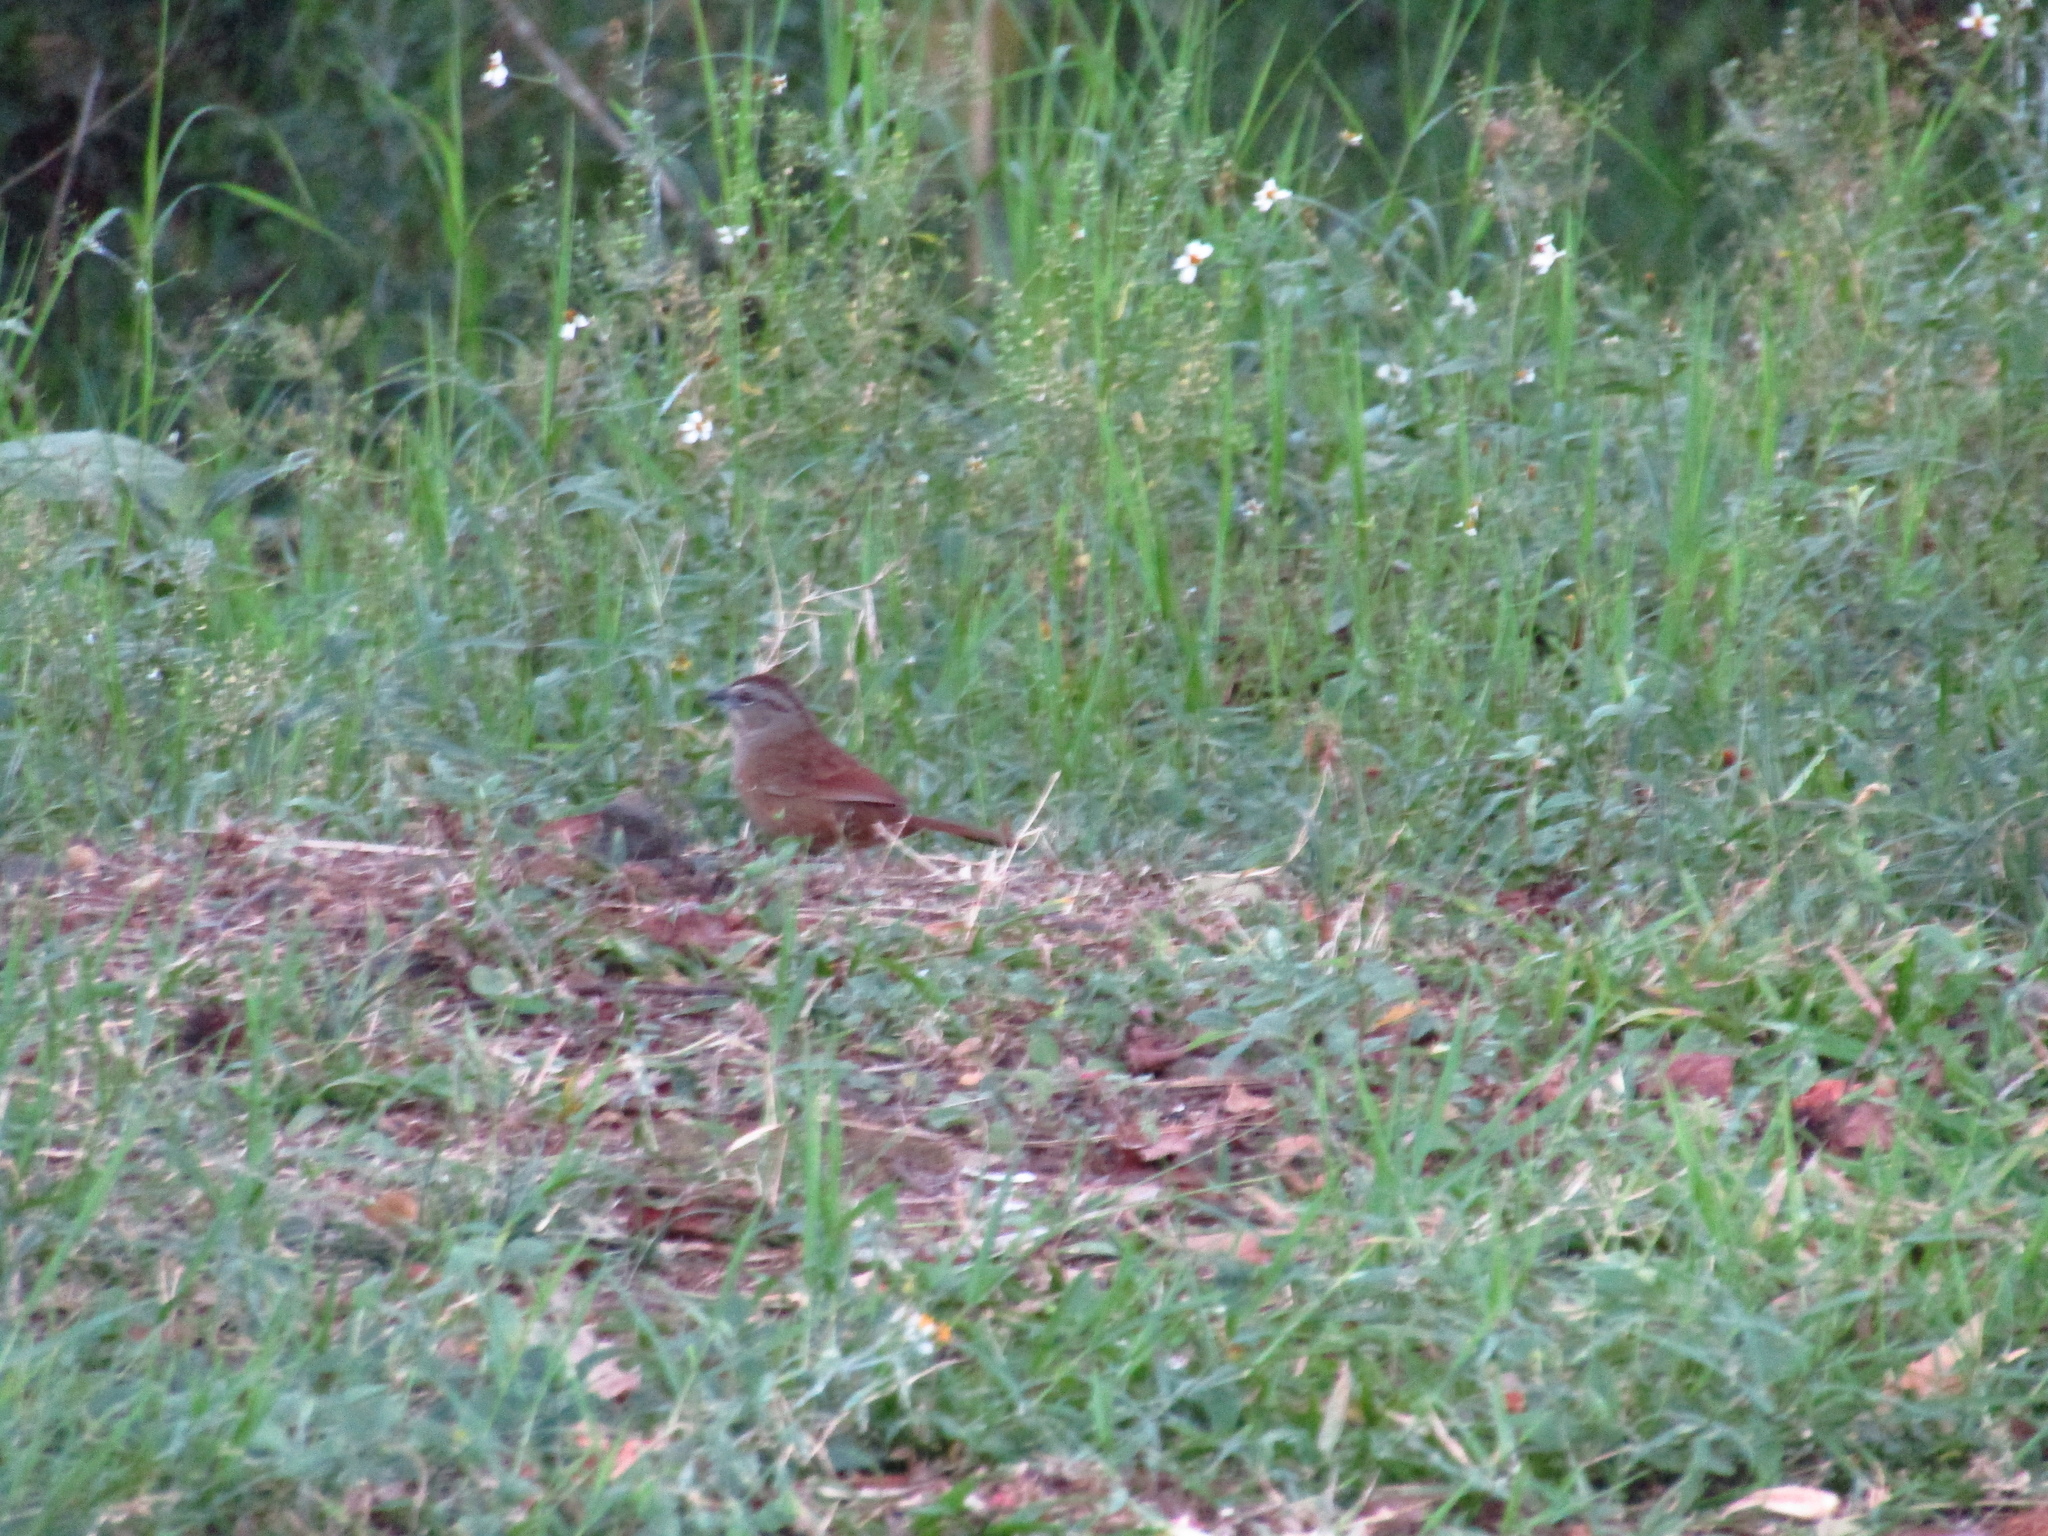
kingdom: Animalia
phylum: Chordata
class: Aves
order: Passeriformes
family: Passerellidae
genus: Aimophila
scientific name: Aimophila rufescens
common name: Rusty sparrow
